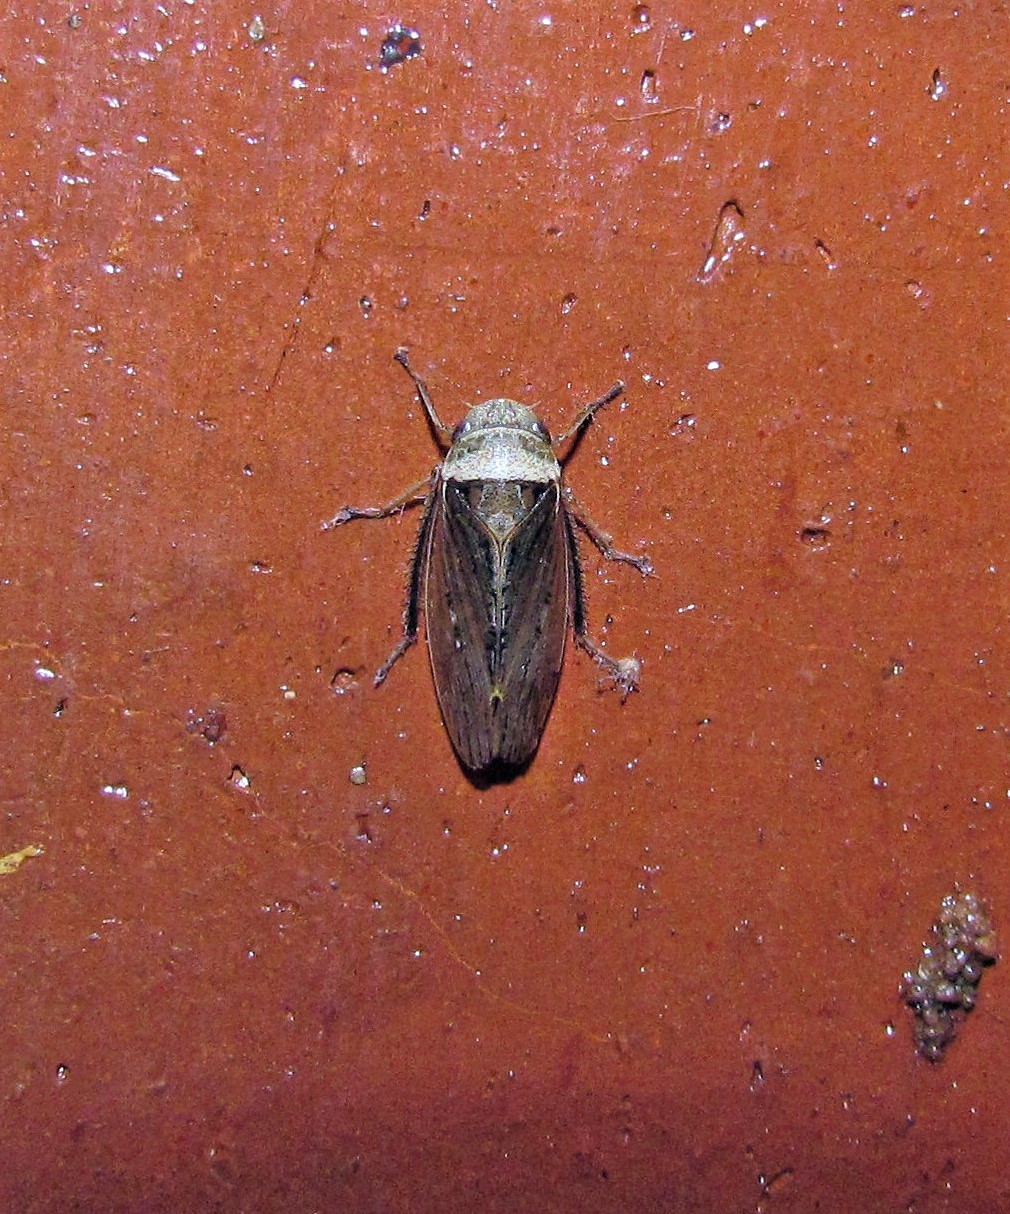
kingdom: Animalia
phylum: Arthropoda
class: Insecta
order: Hemiptera
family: Cicadellidae
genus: Sordana
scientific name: Sordana sordida
